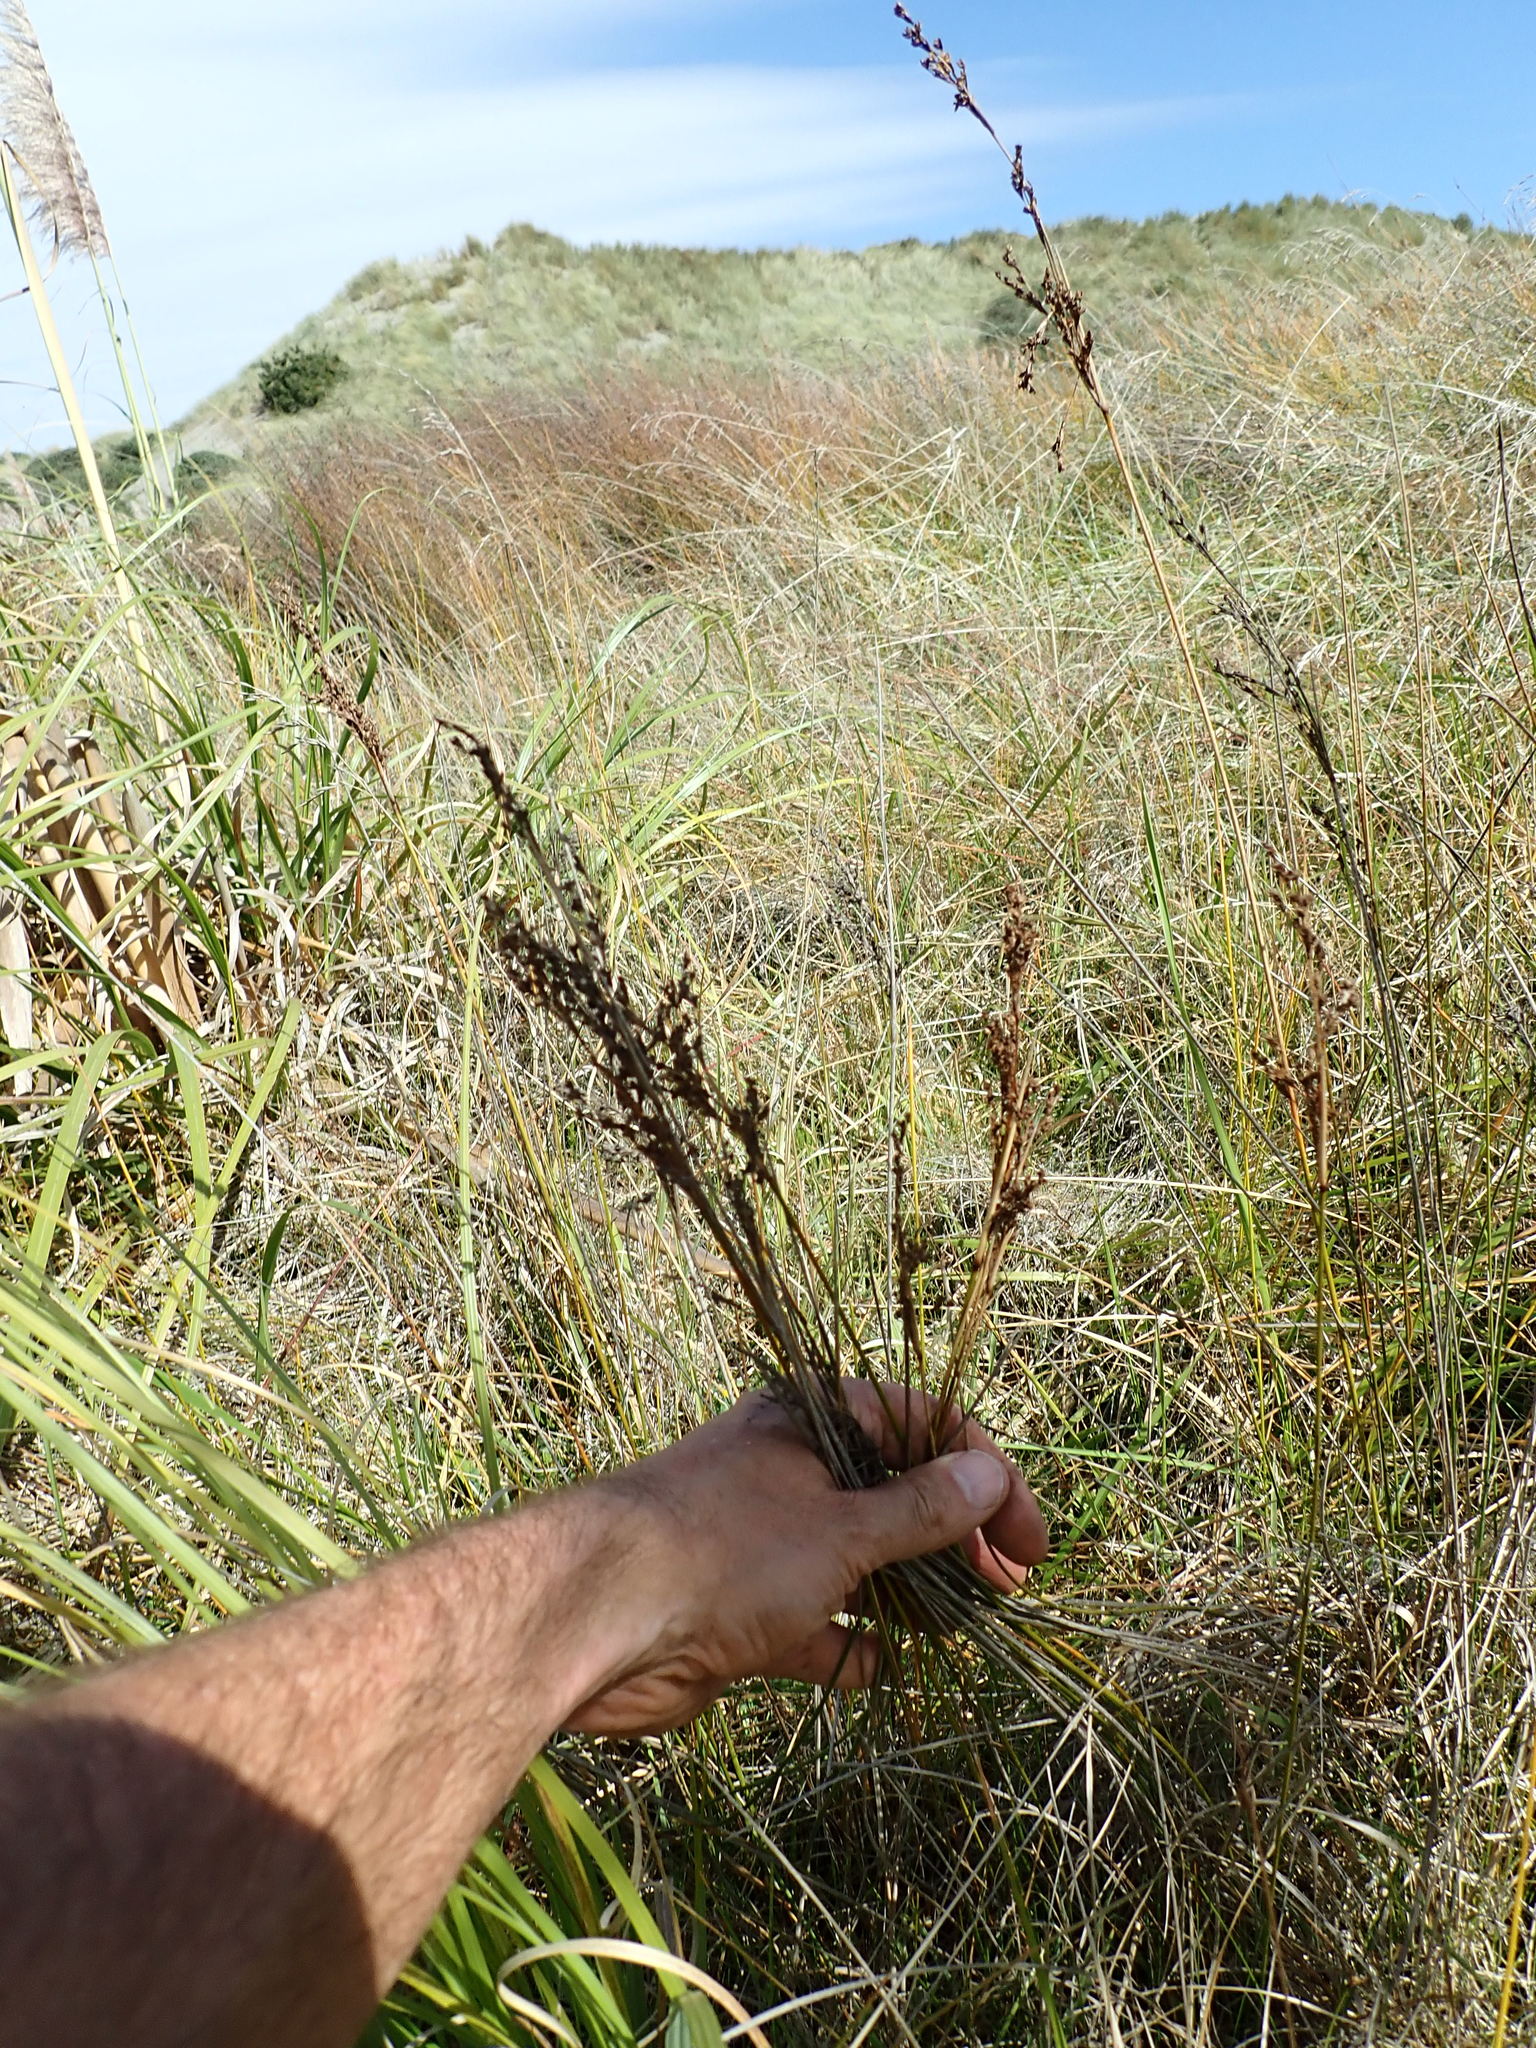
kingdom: Plantae
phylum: Tracheophyta
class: Liliopsida
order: Poales
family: Juncaceae
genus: Juncus
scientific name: Juncus kraussii
